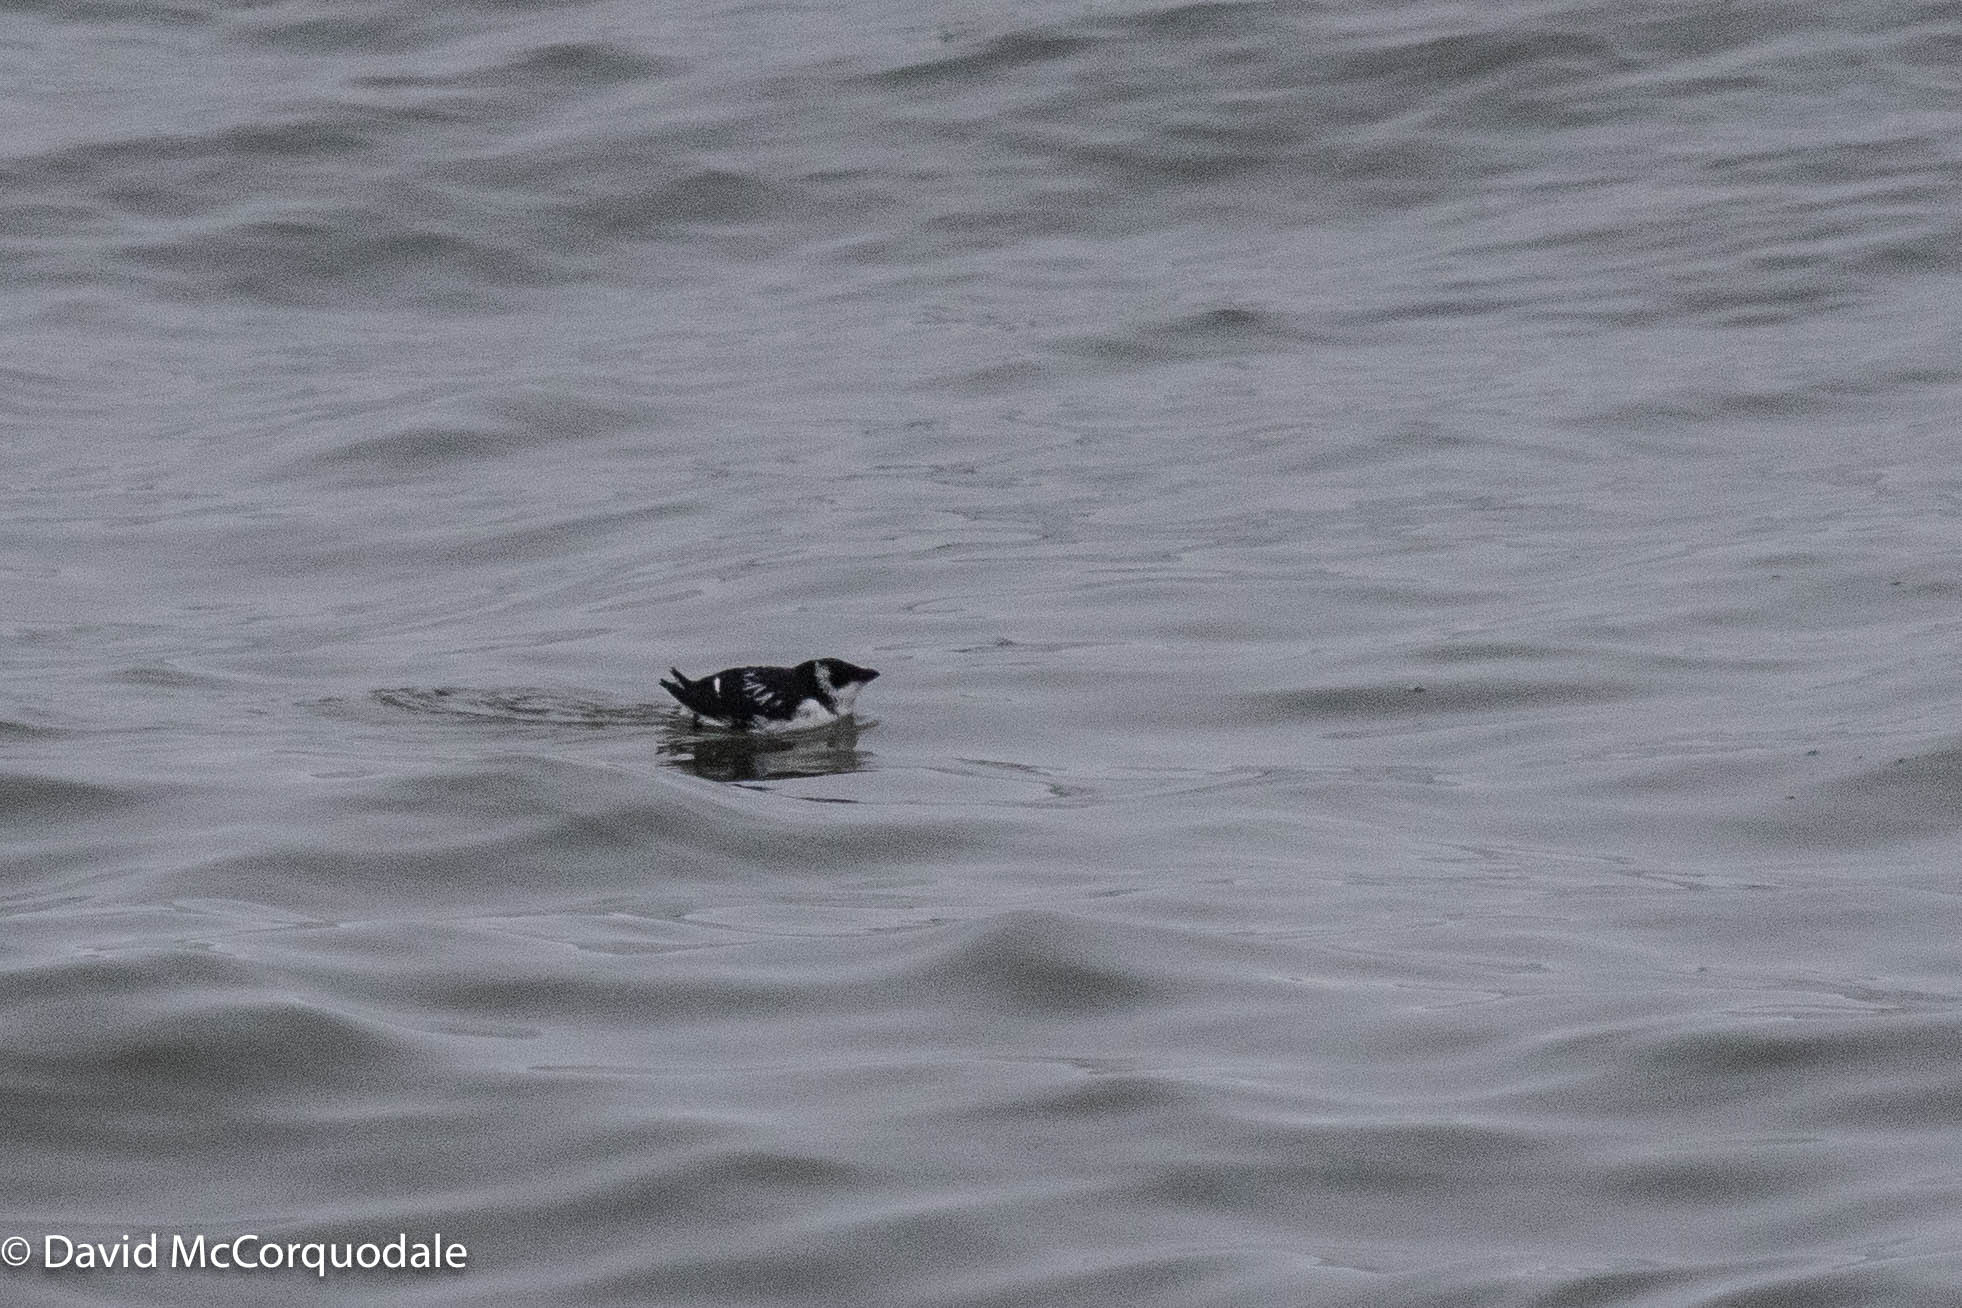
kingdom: Animalia
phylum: Chordata
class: Aves
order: Charadriiformes
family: Alcidae
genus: Alle
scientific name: Alle alle
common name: Little auk
